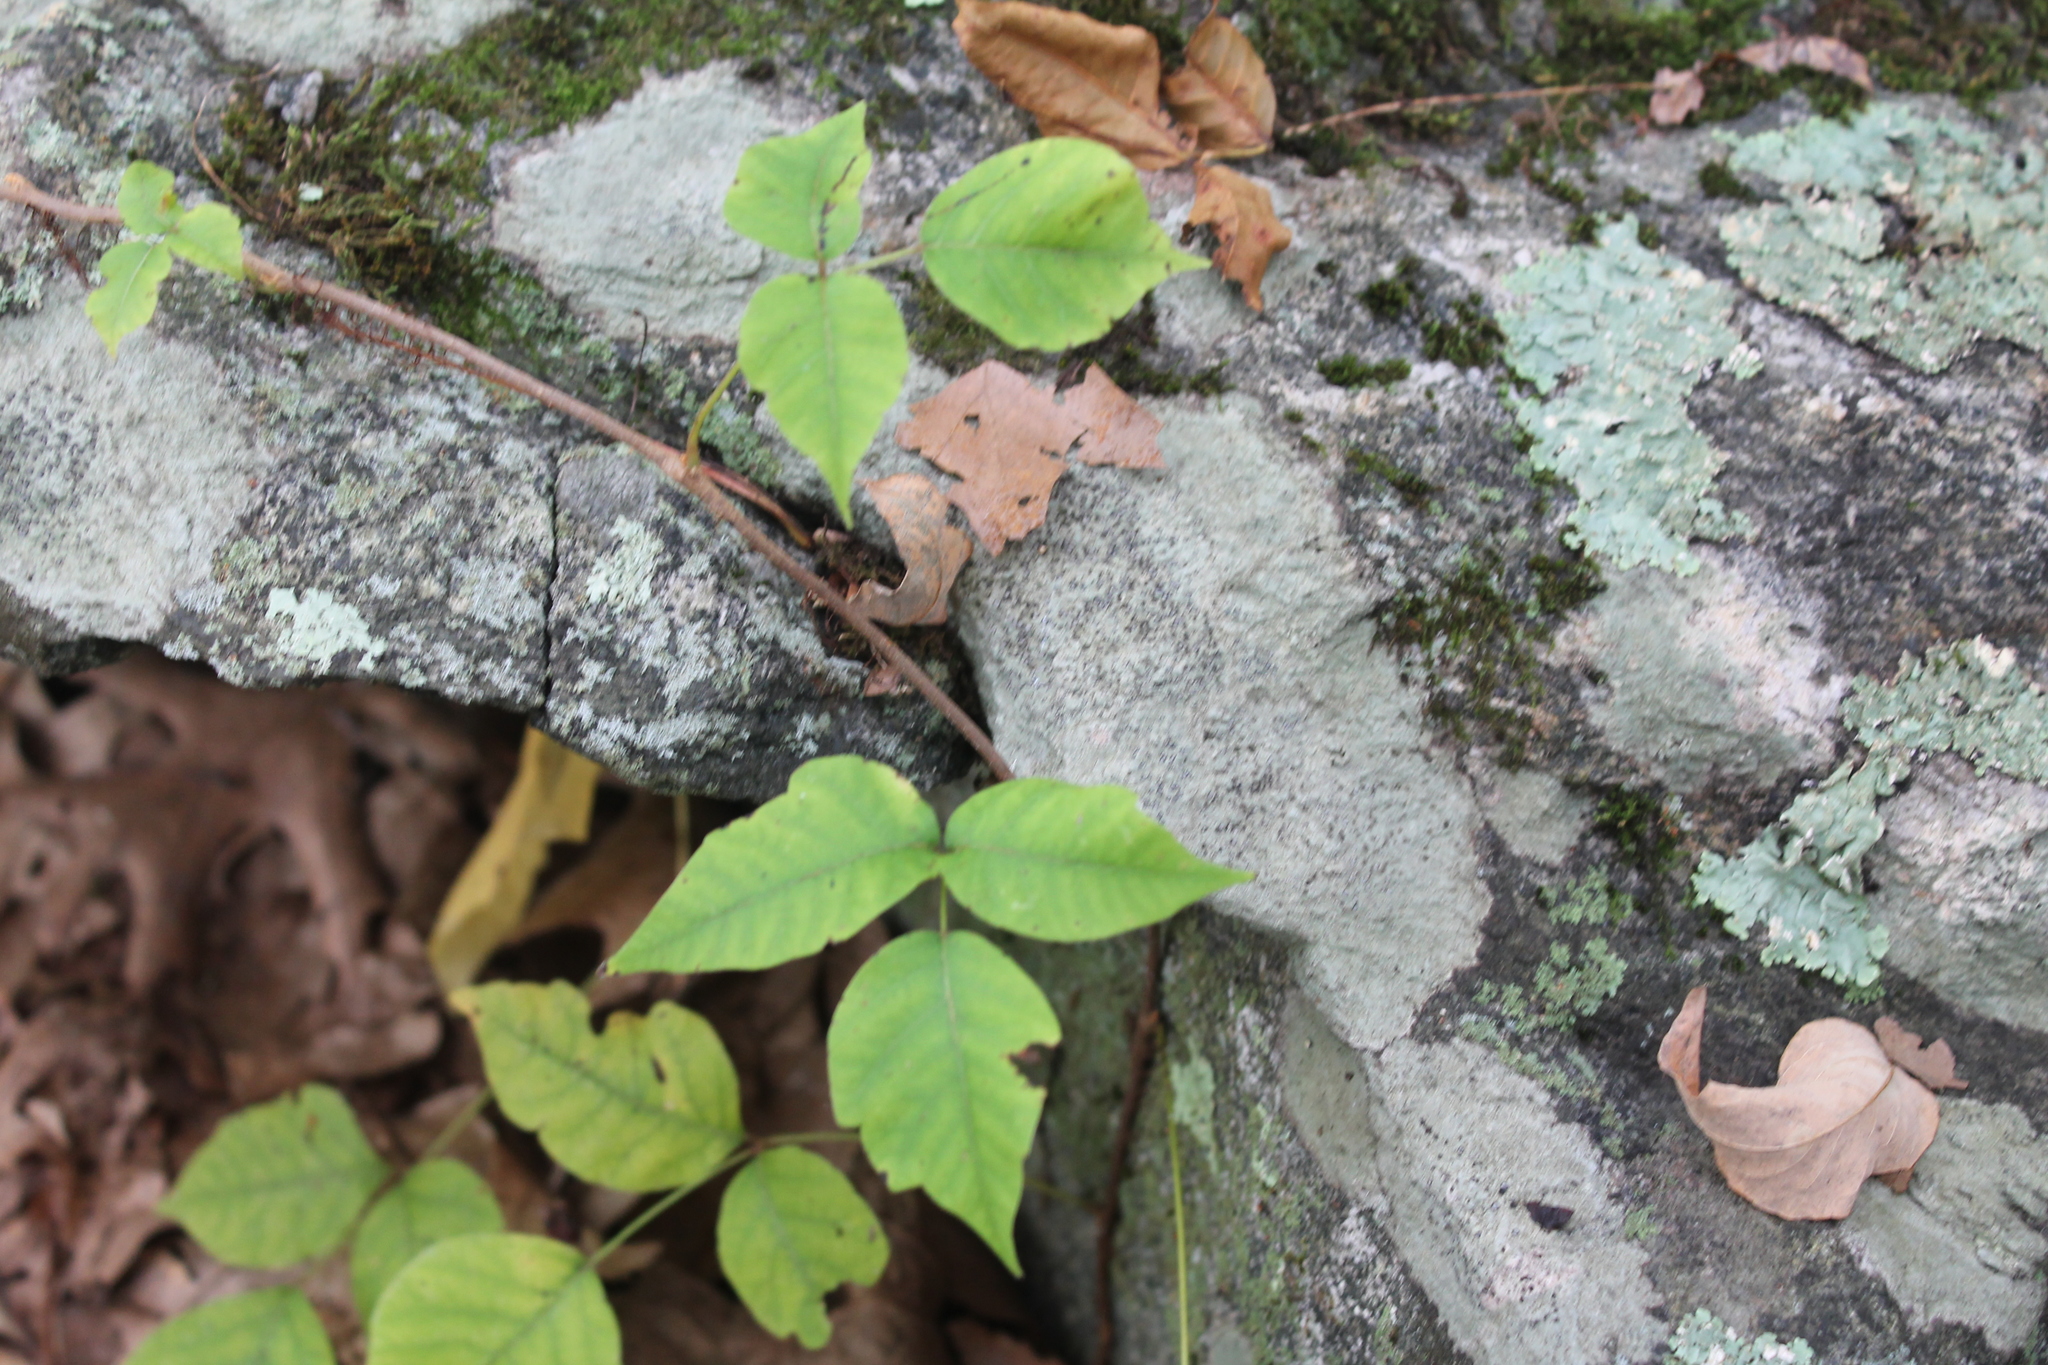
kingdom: Plantae
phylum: Tracheophyta
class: Magnoliopsida
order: Sapindales
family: Anacardiaceae
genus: Toxicodendron
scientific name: Toxicodendron radicans
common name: Poison ivy
